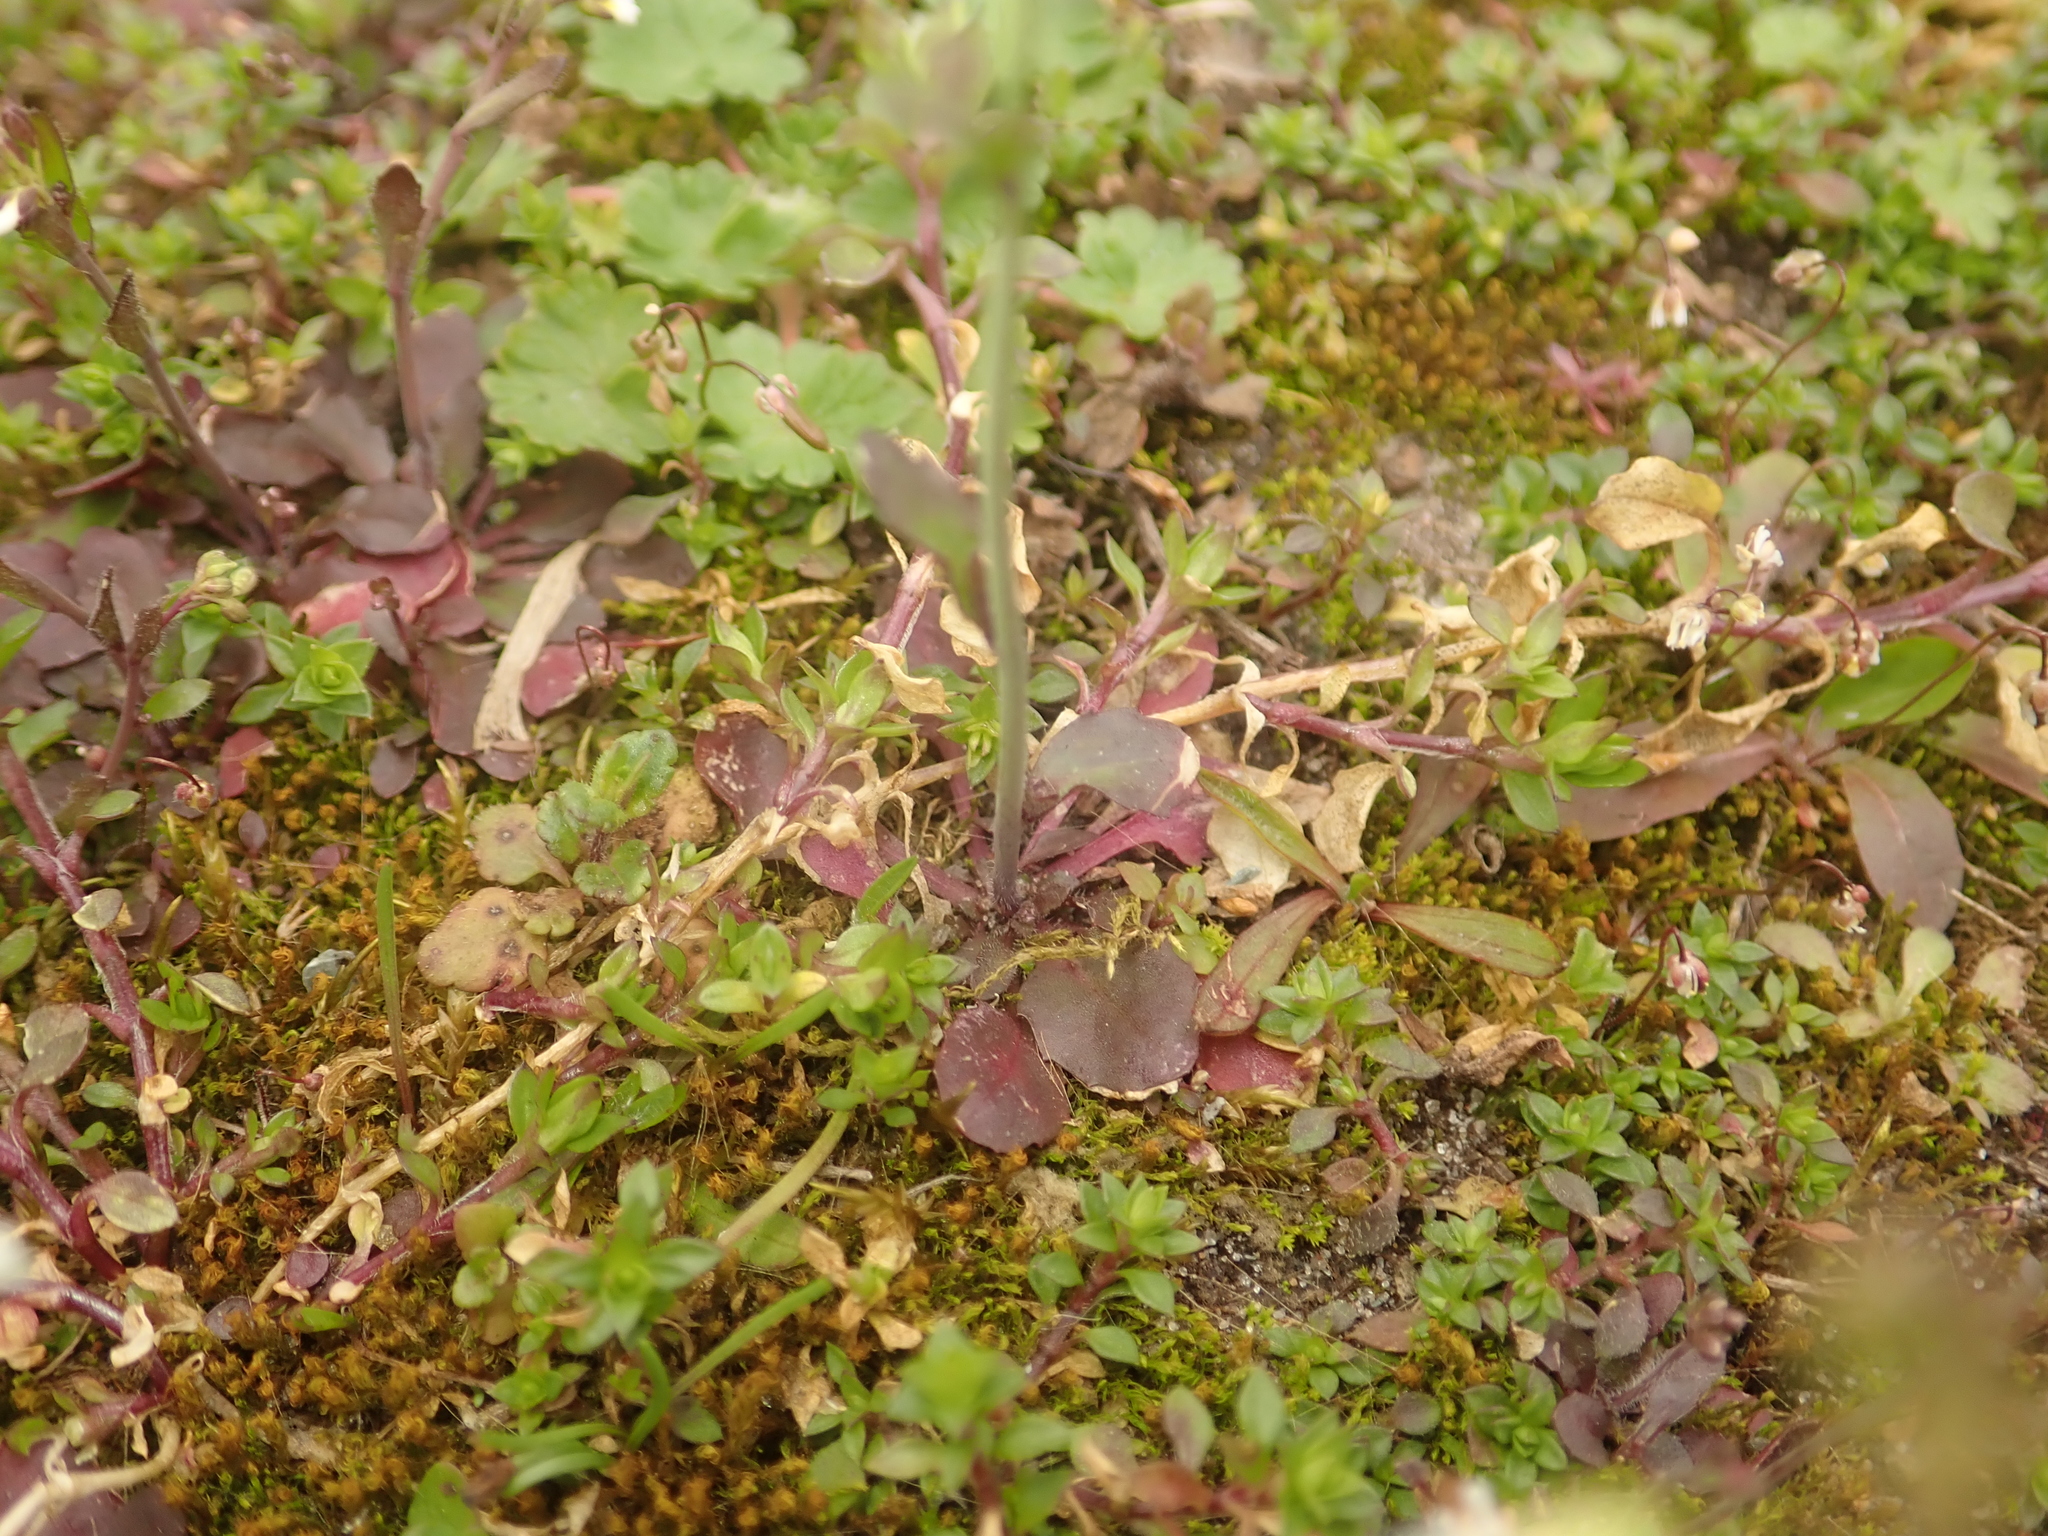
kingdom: Plantae
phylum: Tracheophyta
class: Magnoliopsida
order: Brassicales
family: Brassicaceae
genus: Arabidopsis
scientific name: Arabidopsis thaliana
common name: Thale cress
